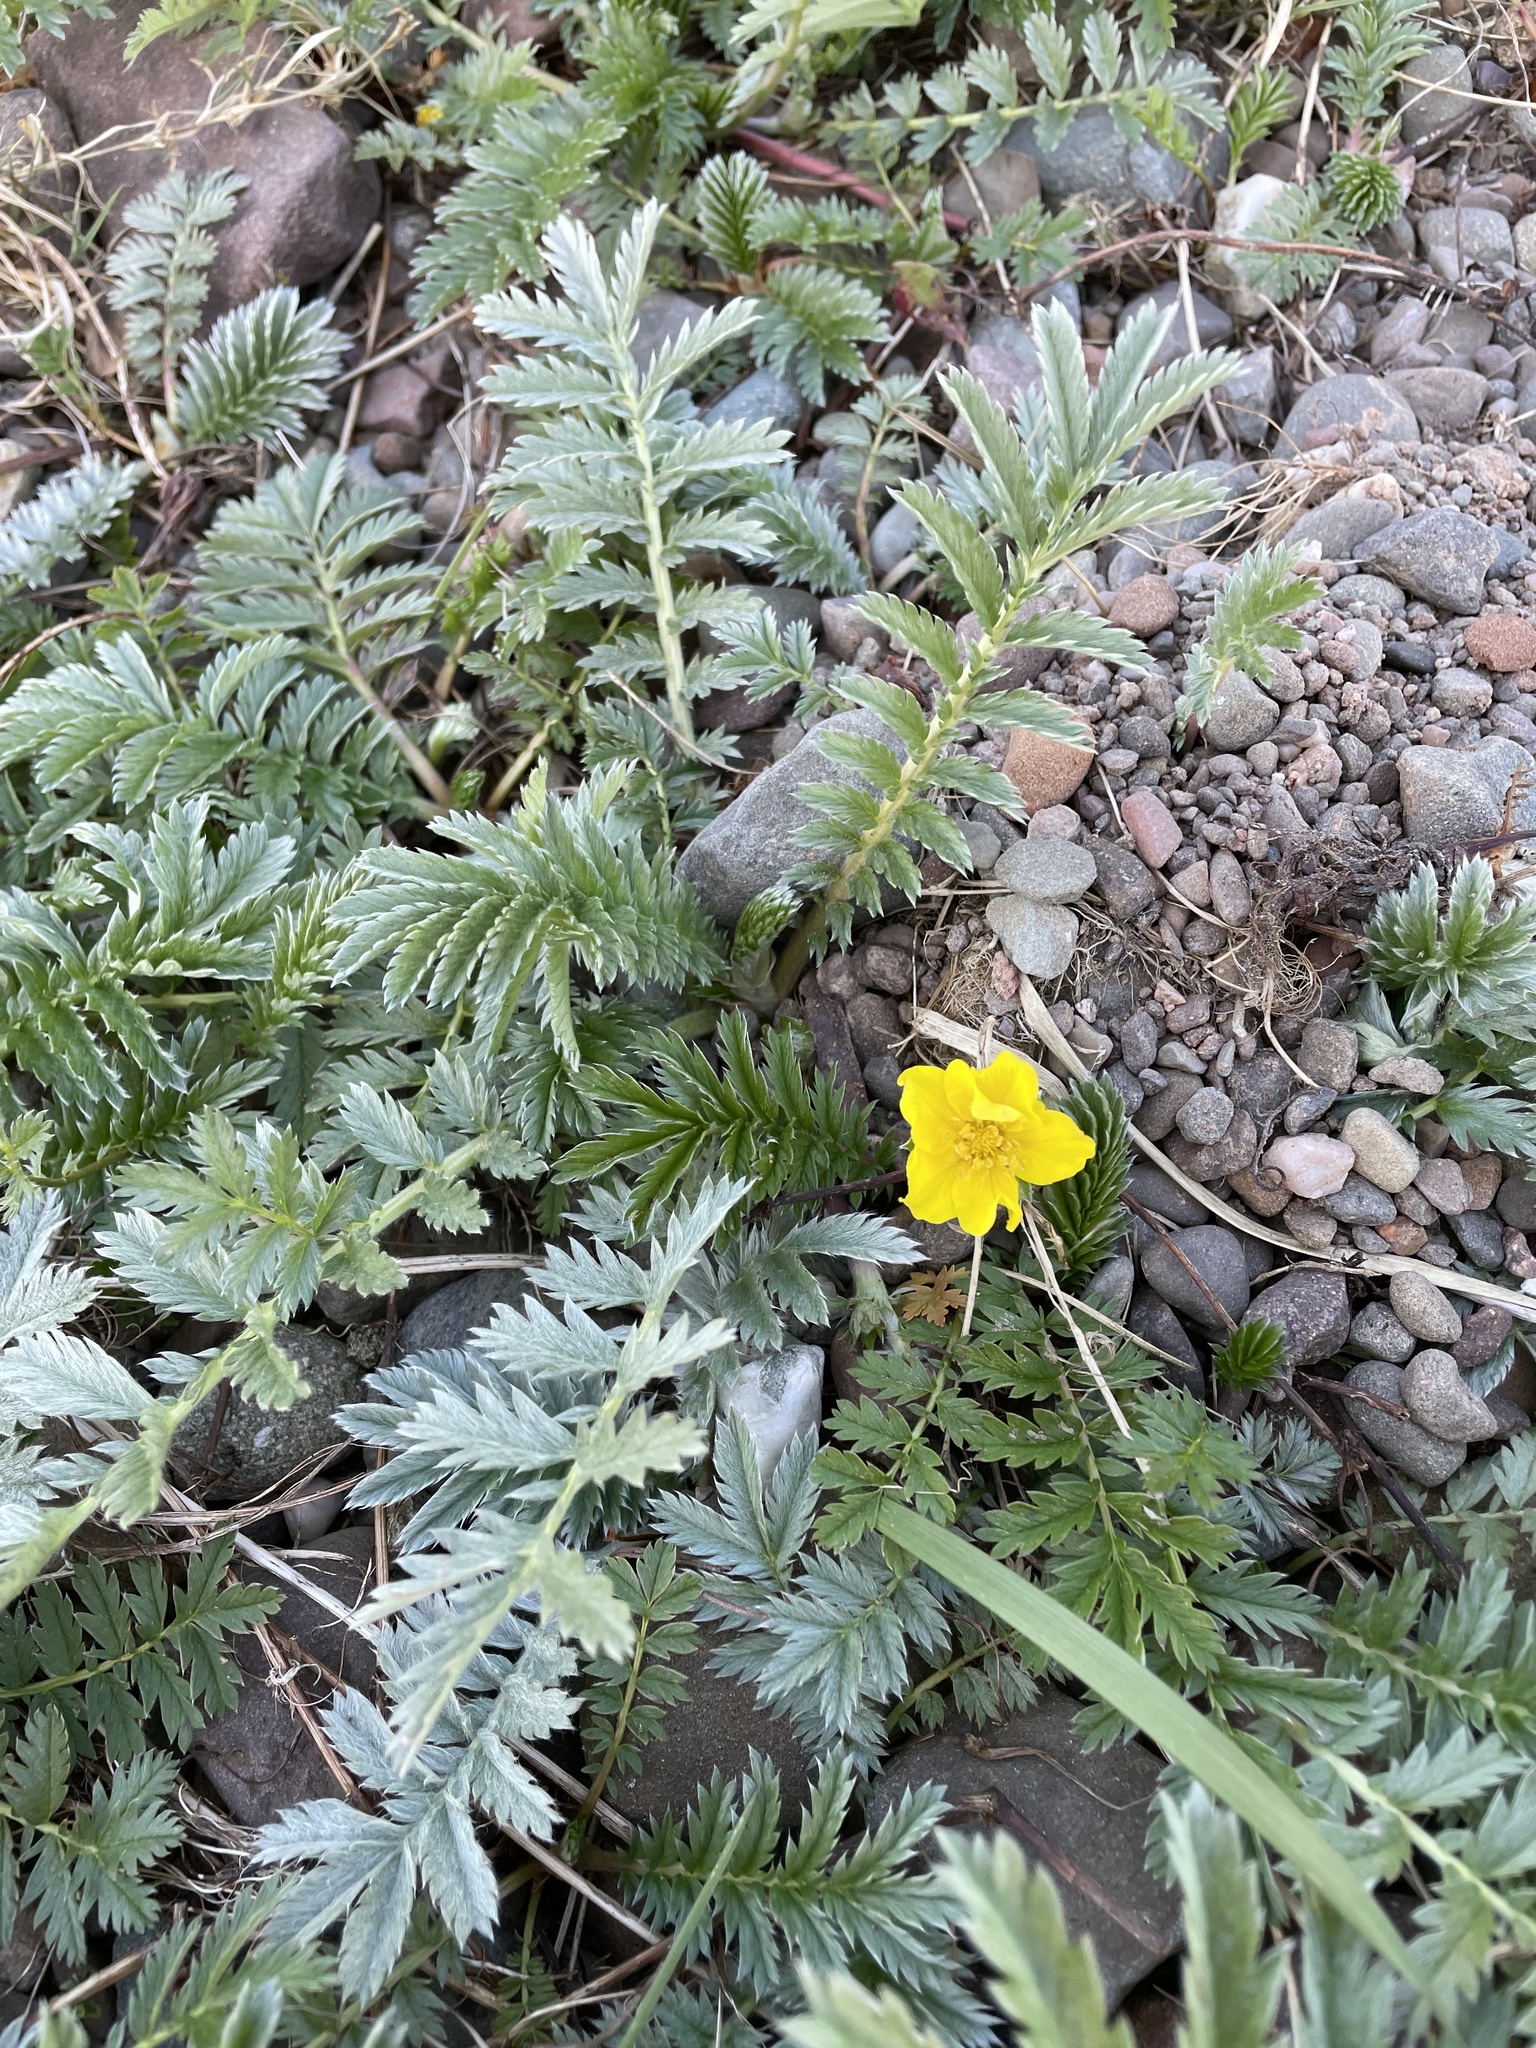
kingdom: Plantae
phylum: Tracheophyta
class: Magnoliopsida
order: Rosales
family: Rosaceae
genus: Argentina
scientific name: Argentina anserina
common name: Common silverweed
